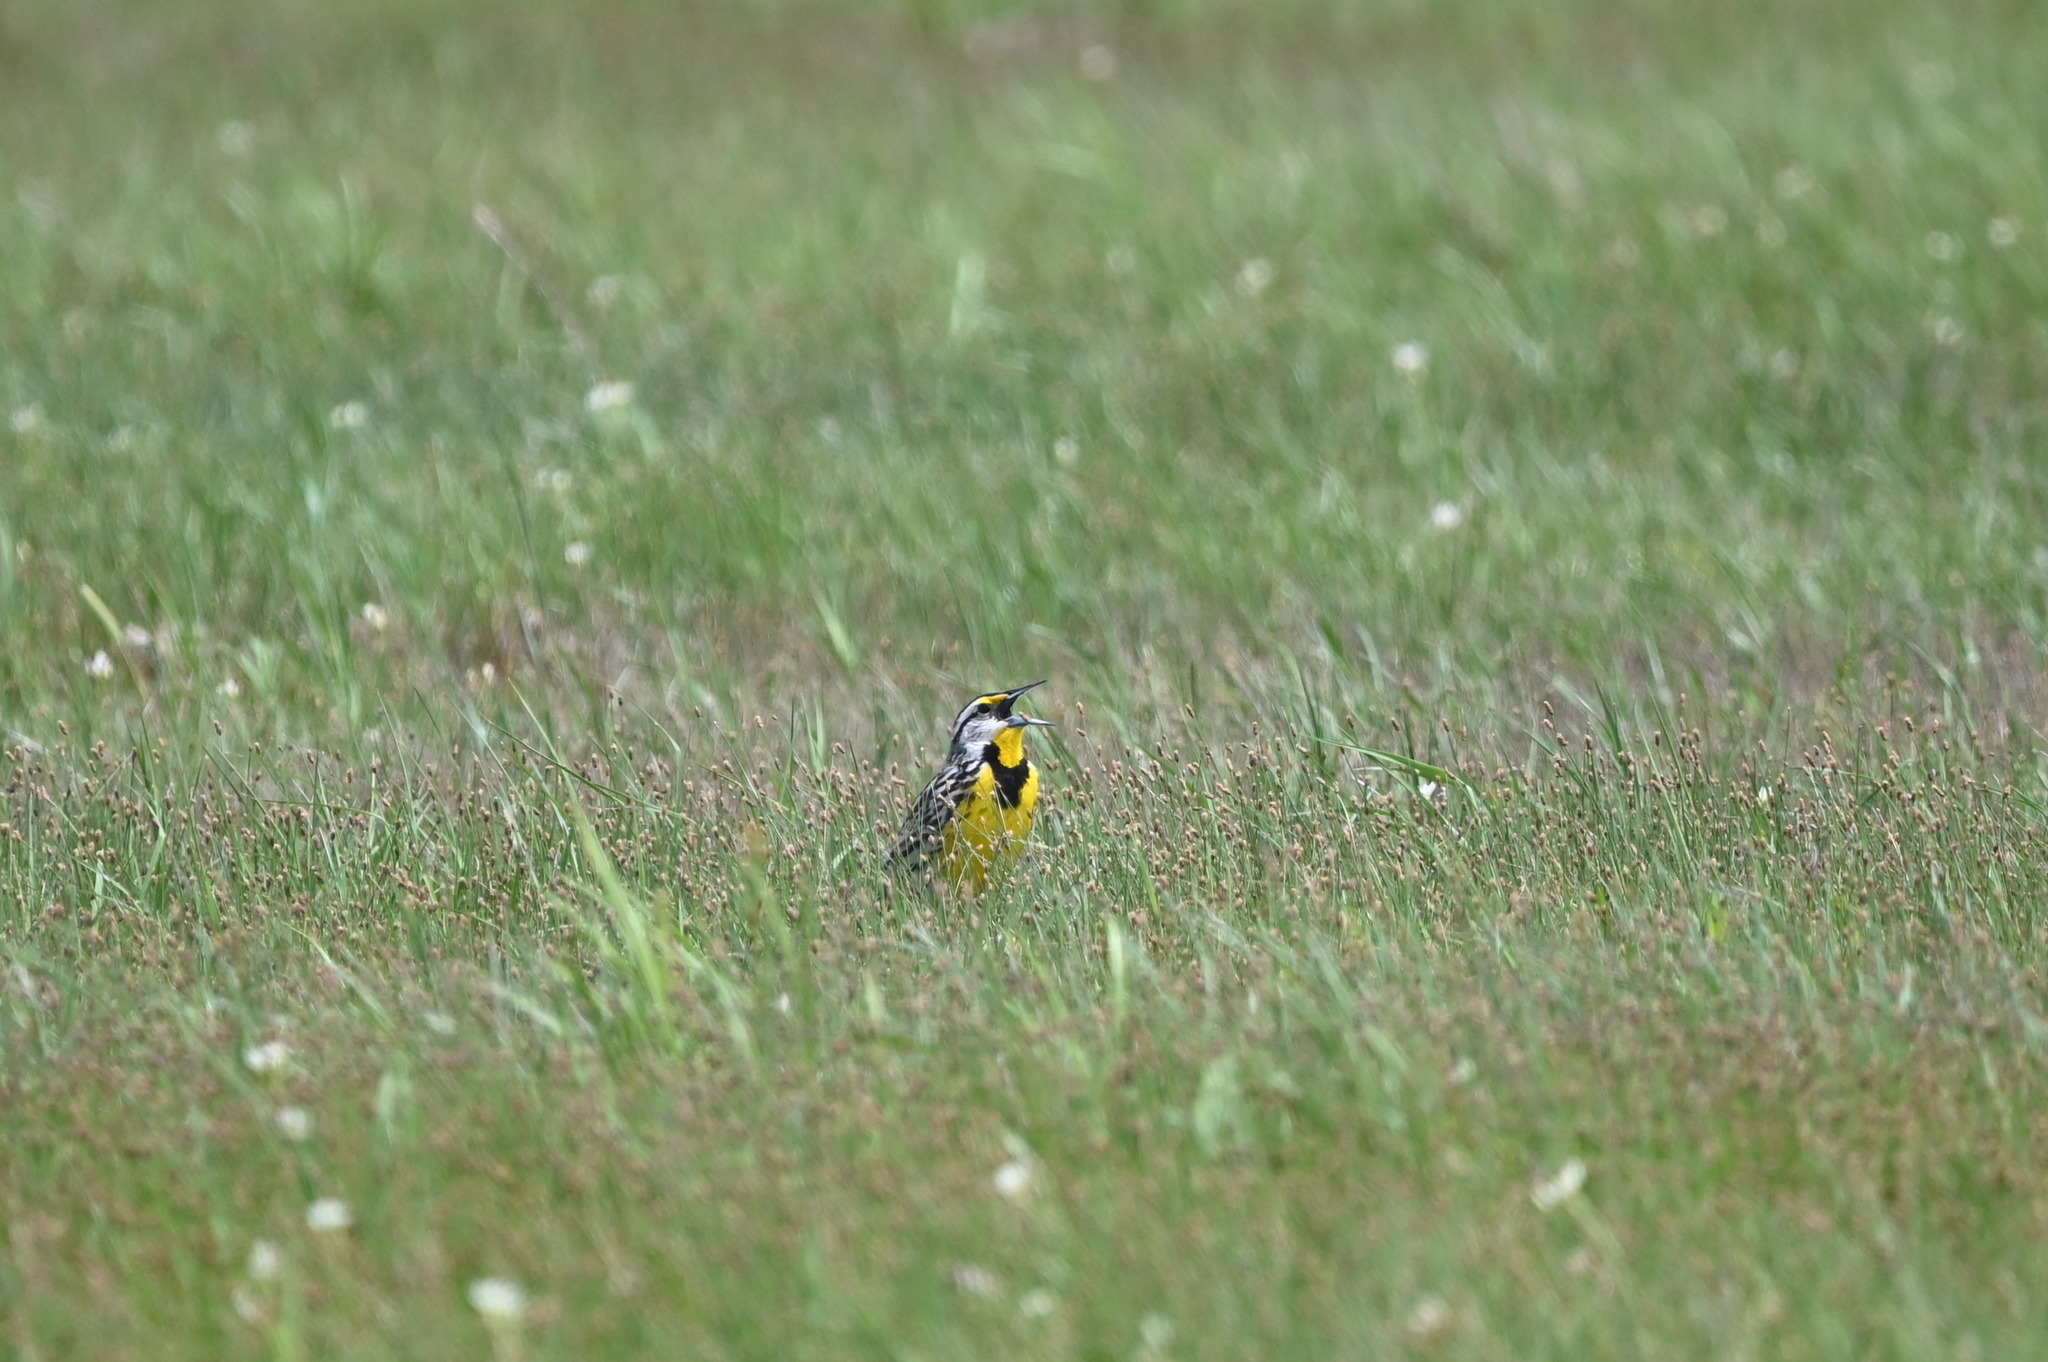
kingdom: Animalia
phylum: Chordata
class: Aves
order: Passeriformes
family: Icteridae
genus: Sturnella
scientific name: Sturnella magna
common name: Eastern meadowlark
